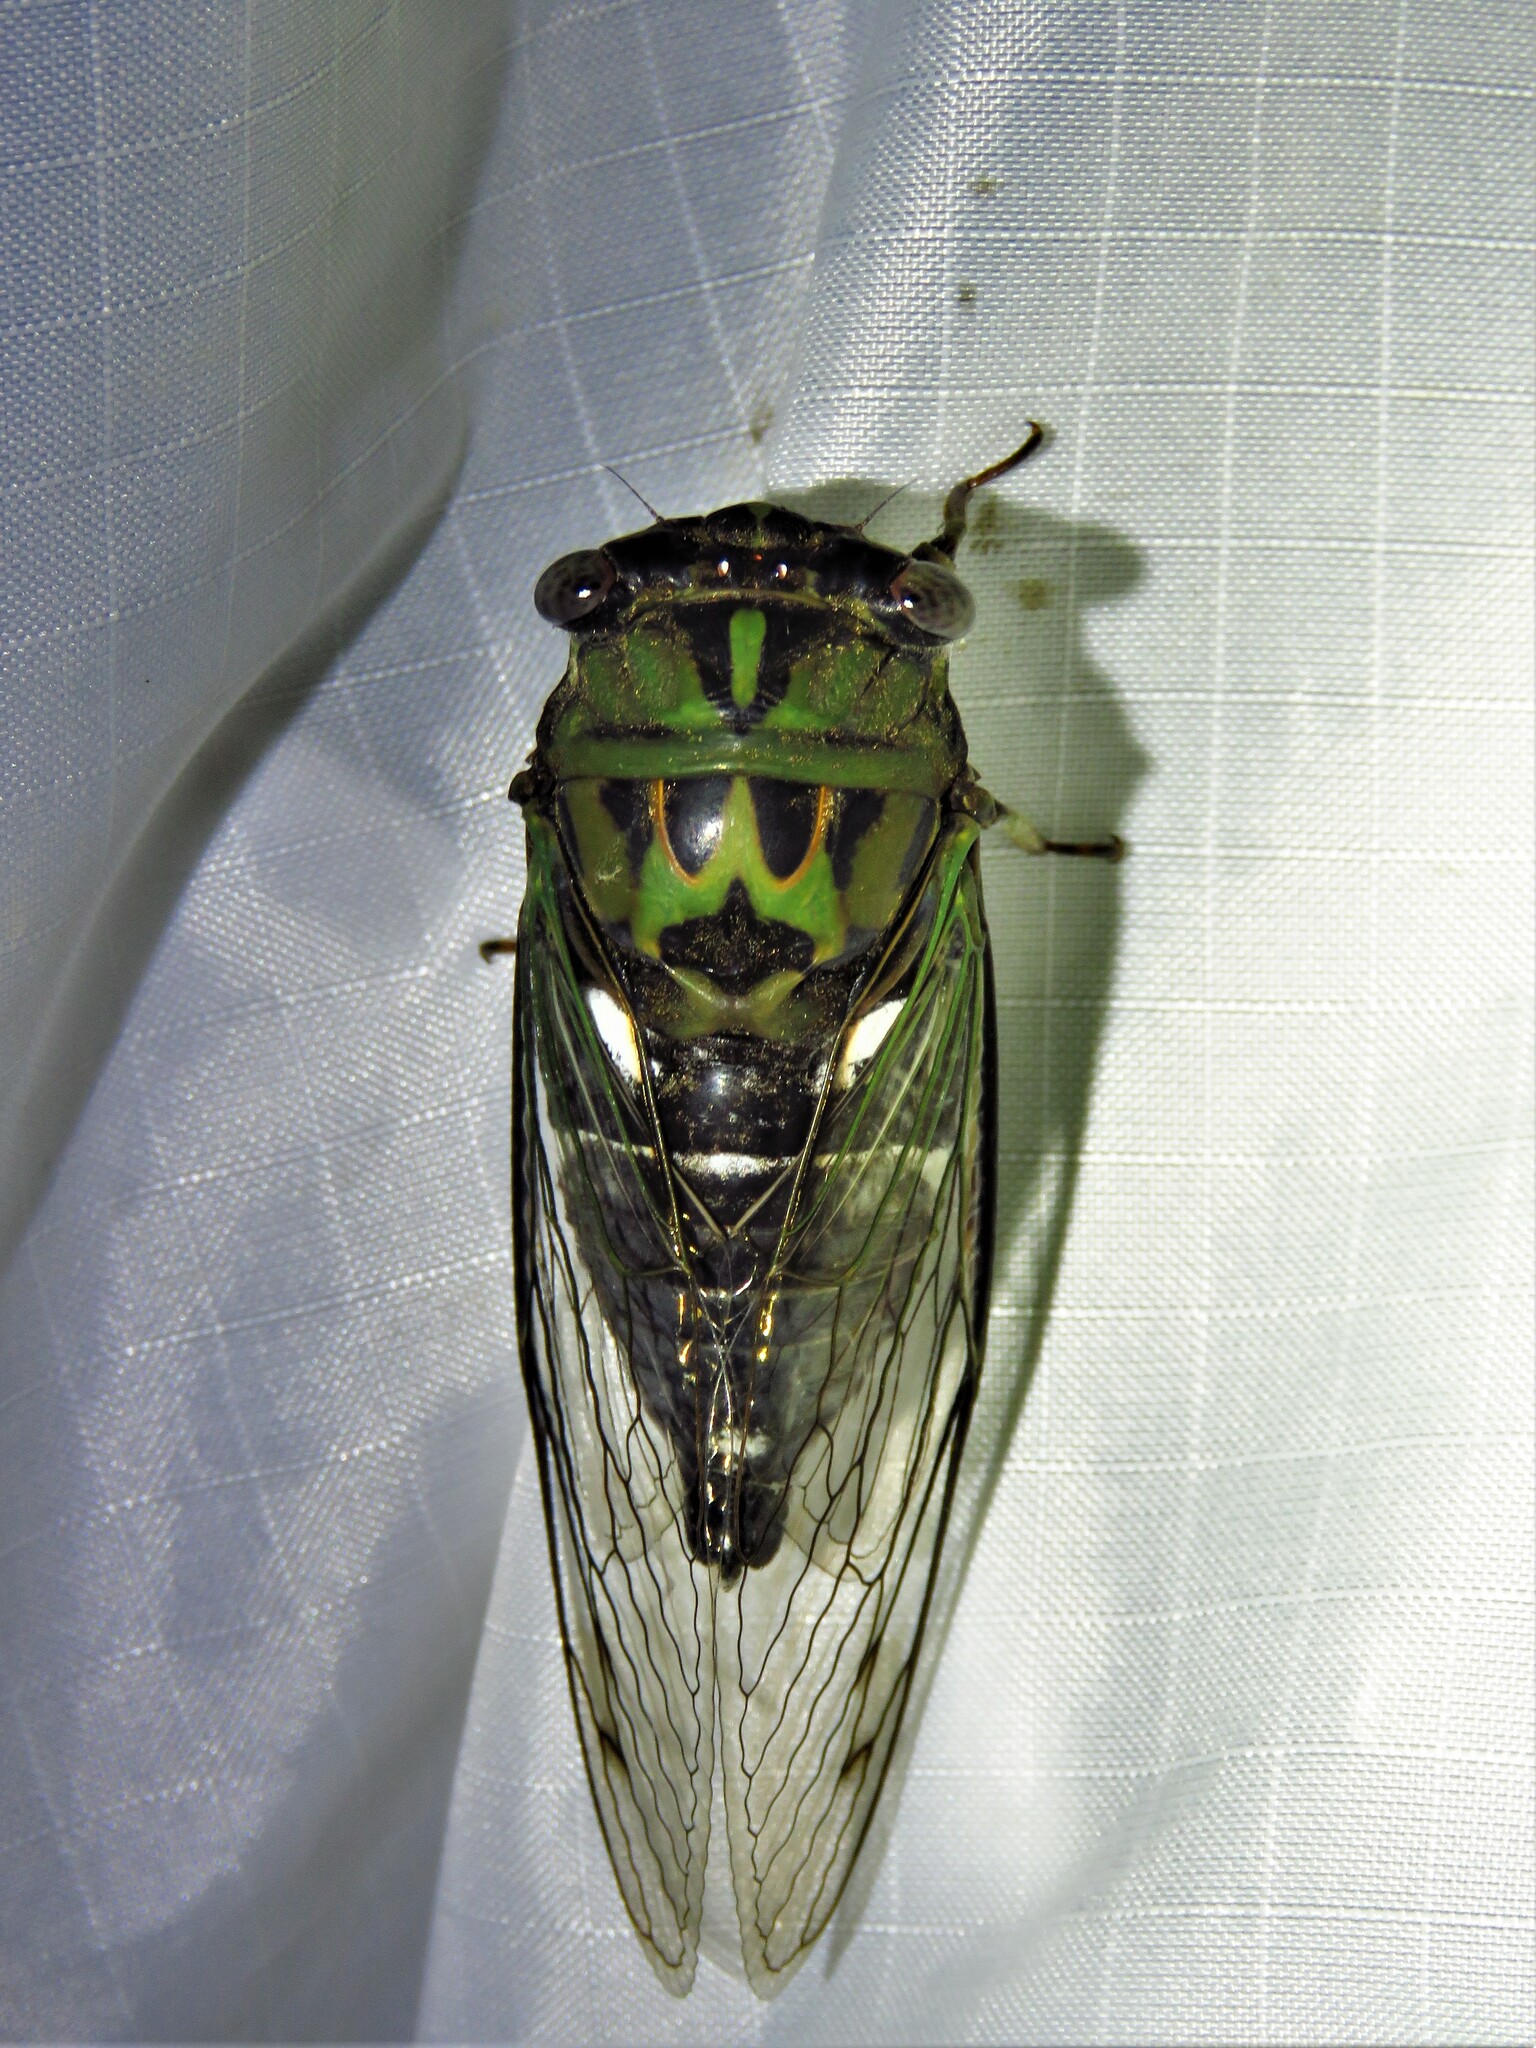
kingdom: Animalia
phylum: Arthropoda
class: Insecta
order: Hemiptera
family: Cicadidae
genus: Neotibicen
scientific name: Neotibicen pruinosus
